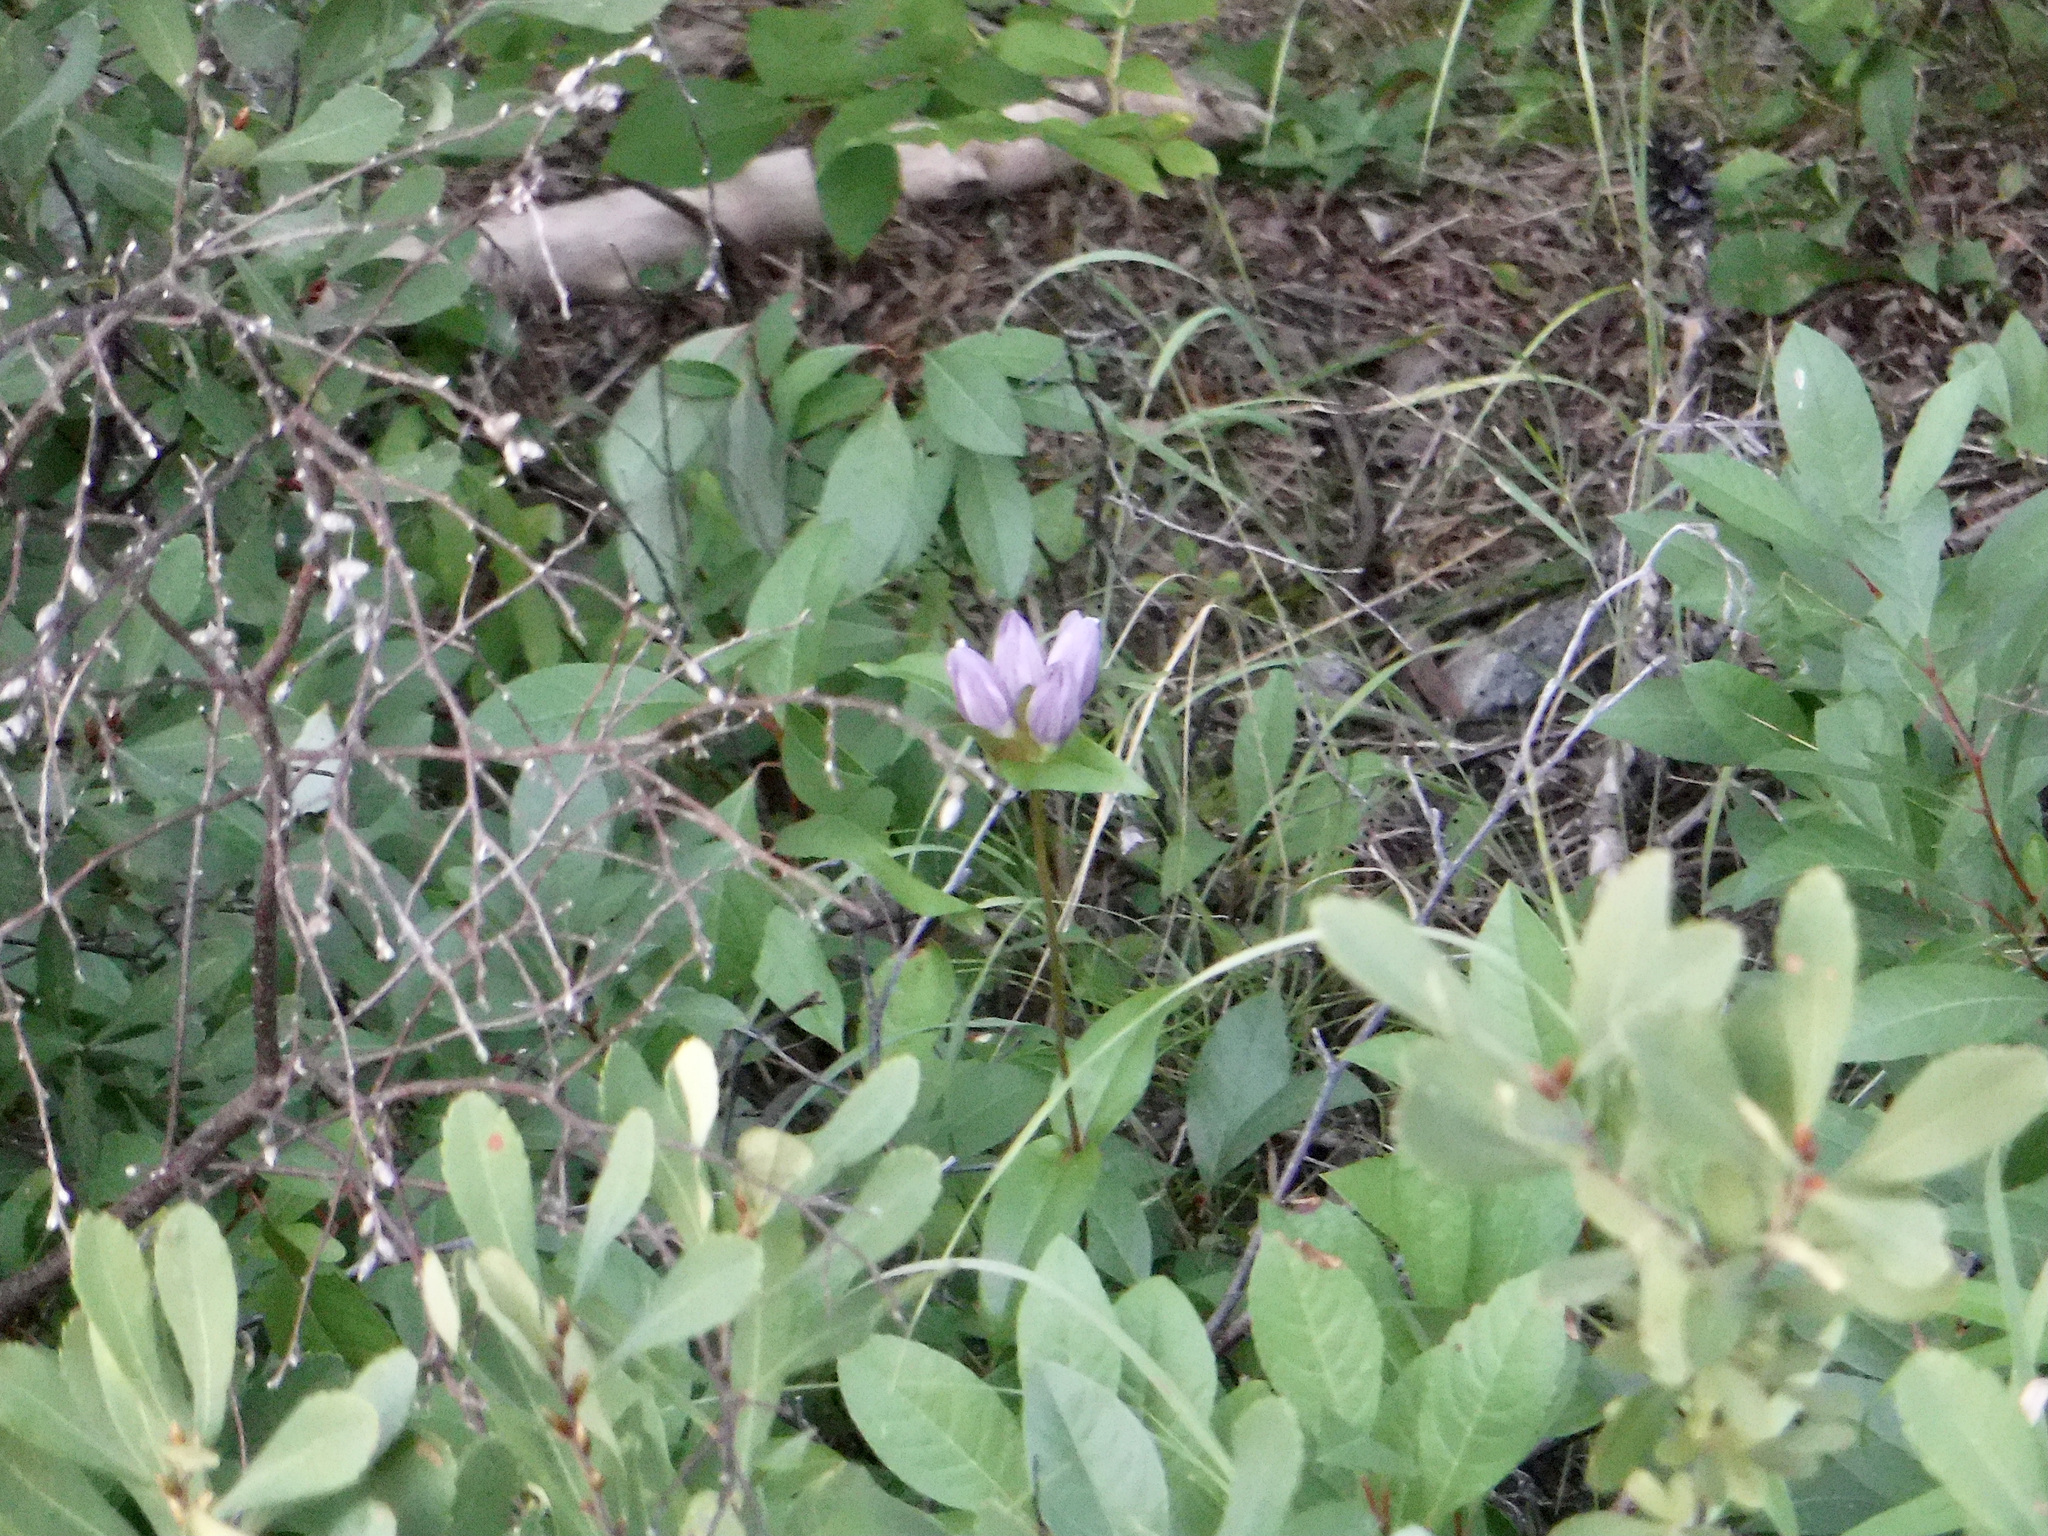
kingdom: Plantae
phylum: Tracheophyta
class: Magnoliopsida
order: Gentianales
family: Gentianaceae
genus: Gentiana
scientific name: Gentiana rubricaulis
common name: Purple-stemmed gentian
